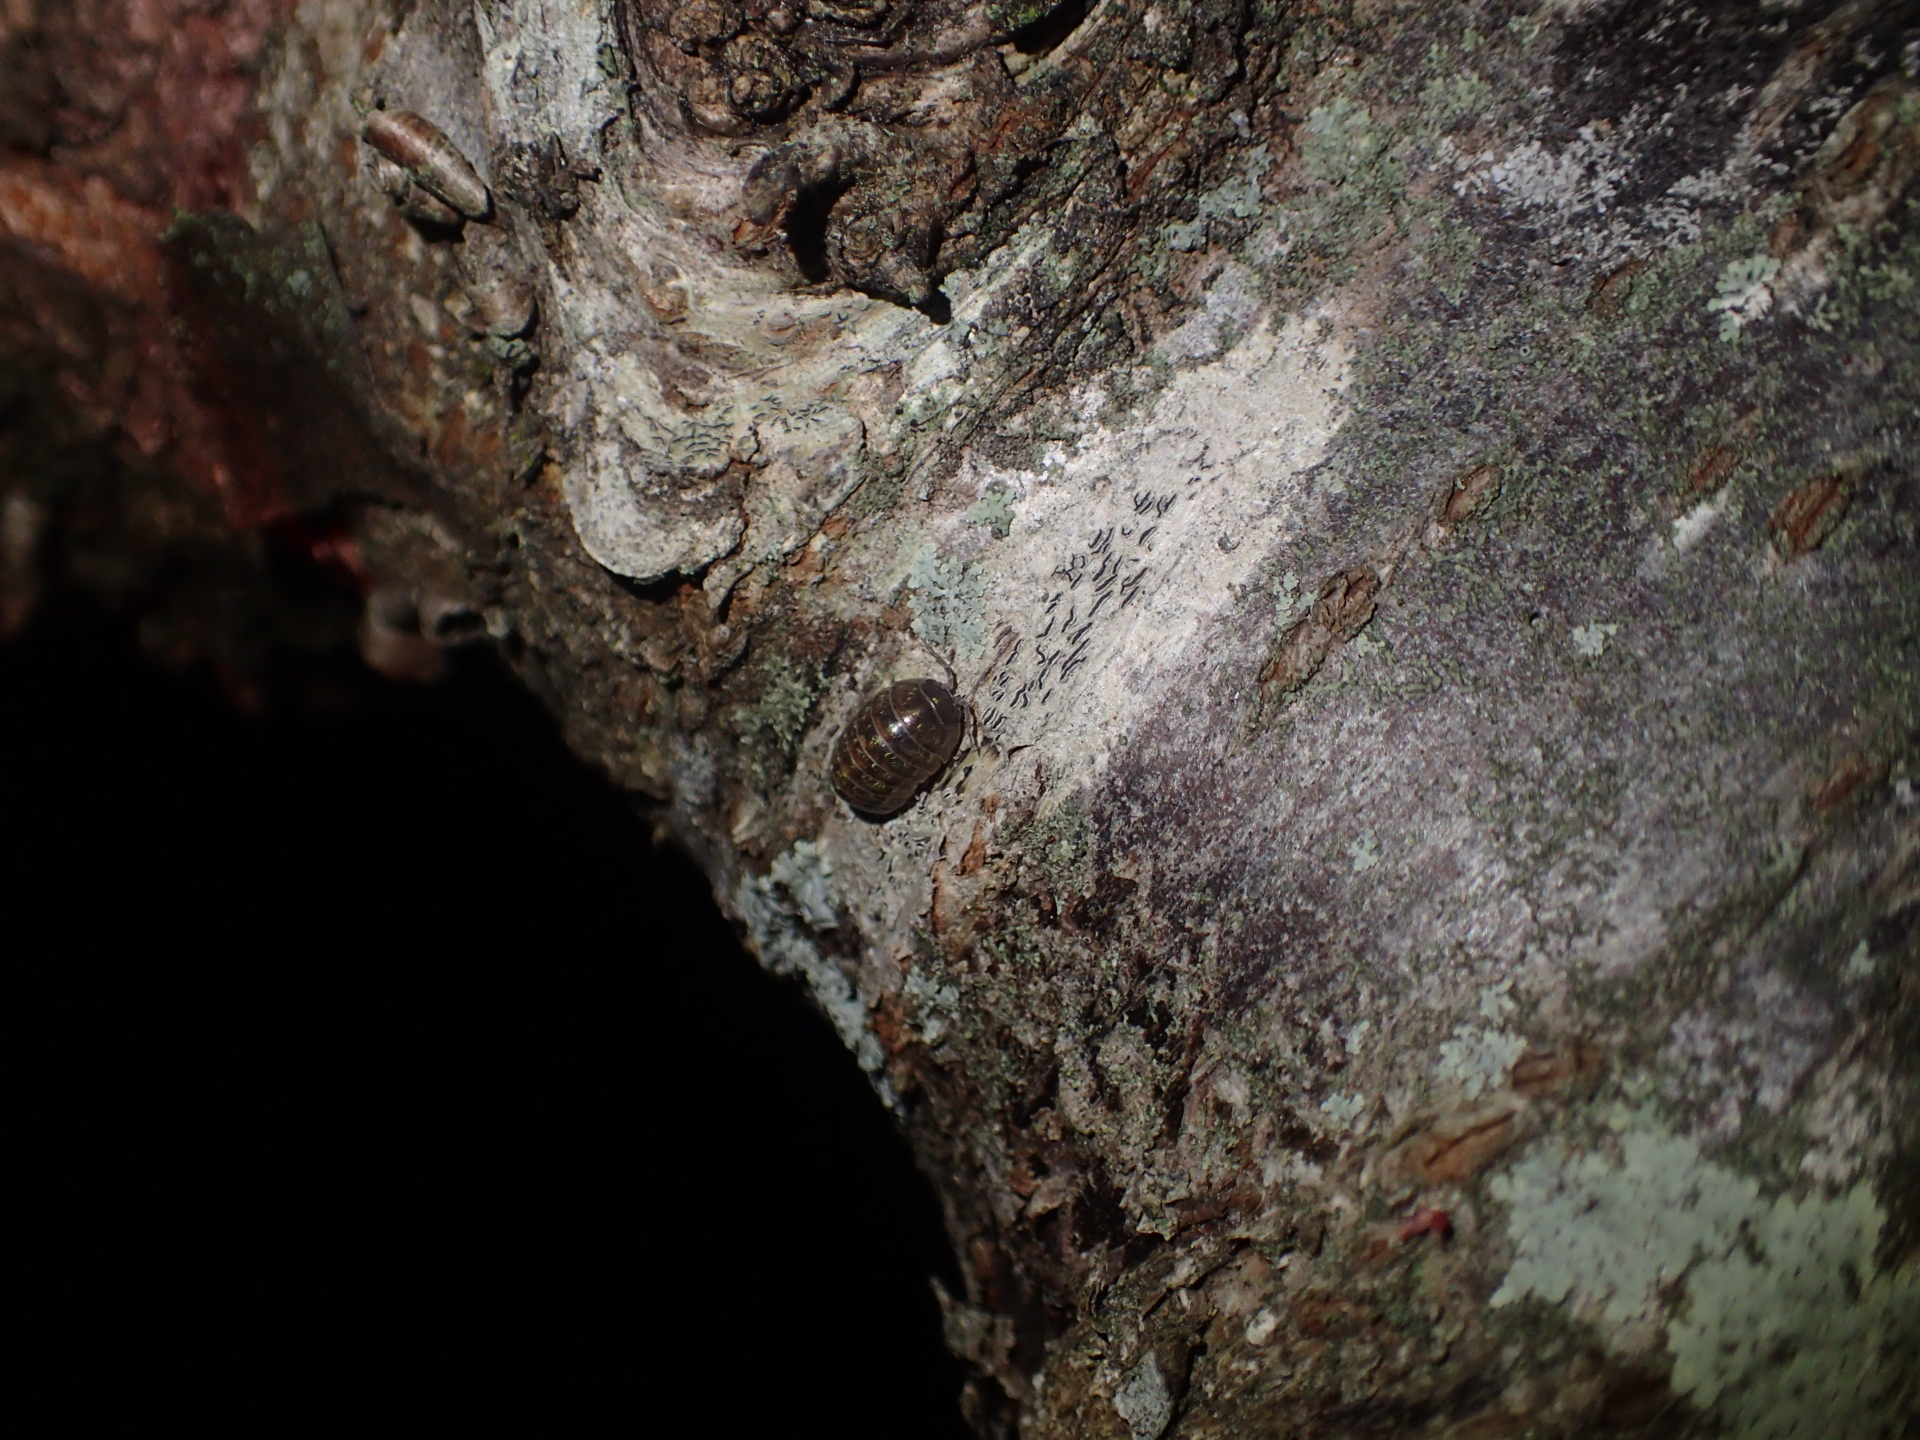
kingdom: Animalia
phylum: Arthropoda
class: Malacostraca
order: Isopoda
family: Armadillidiidae
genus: Armadillidium
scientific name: Armadillidium vulgare
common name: Common pill woodlouse
